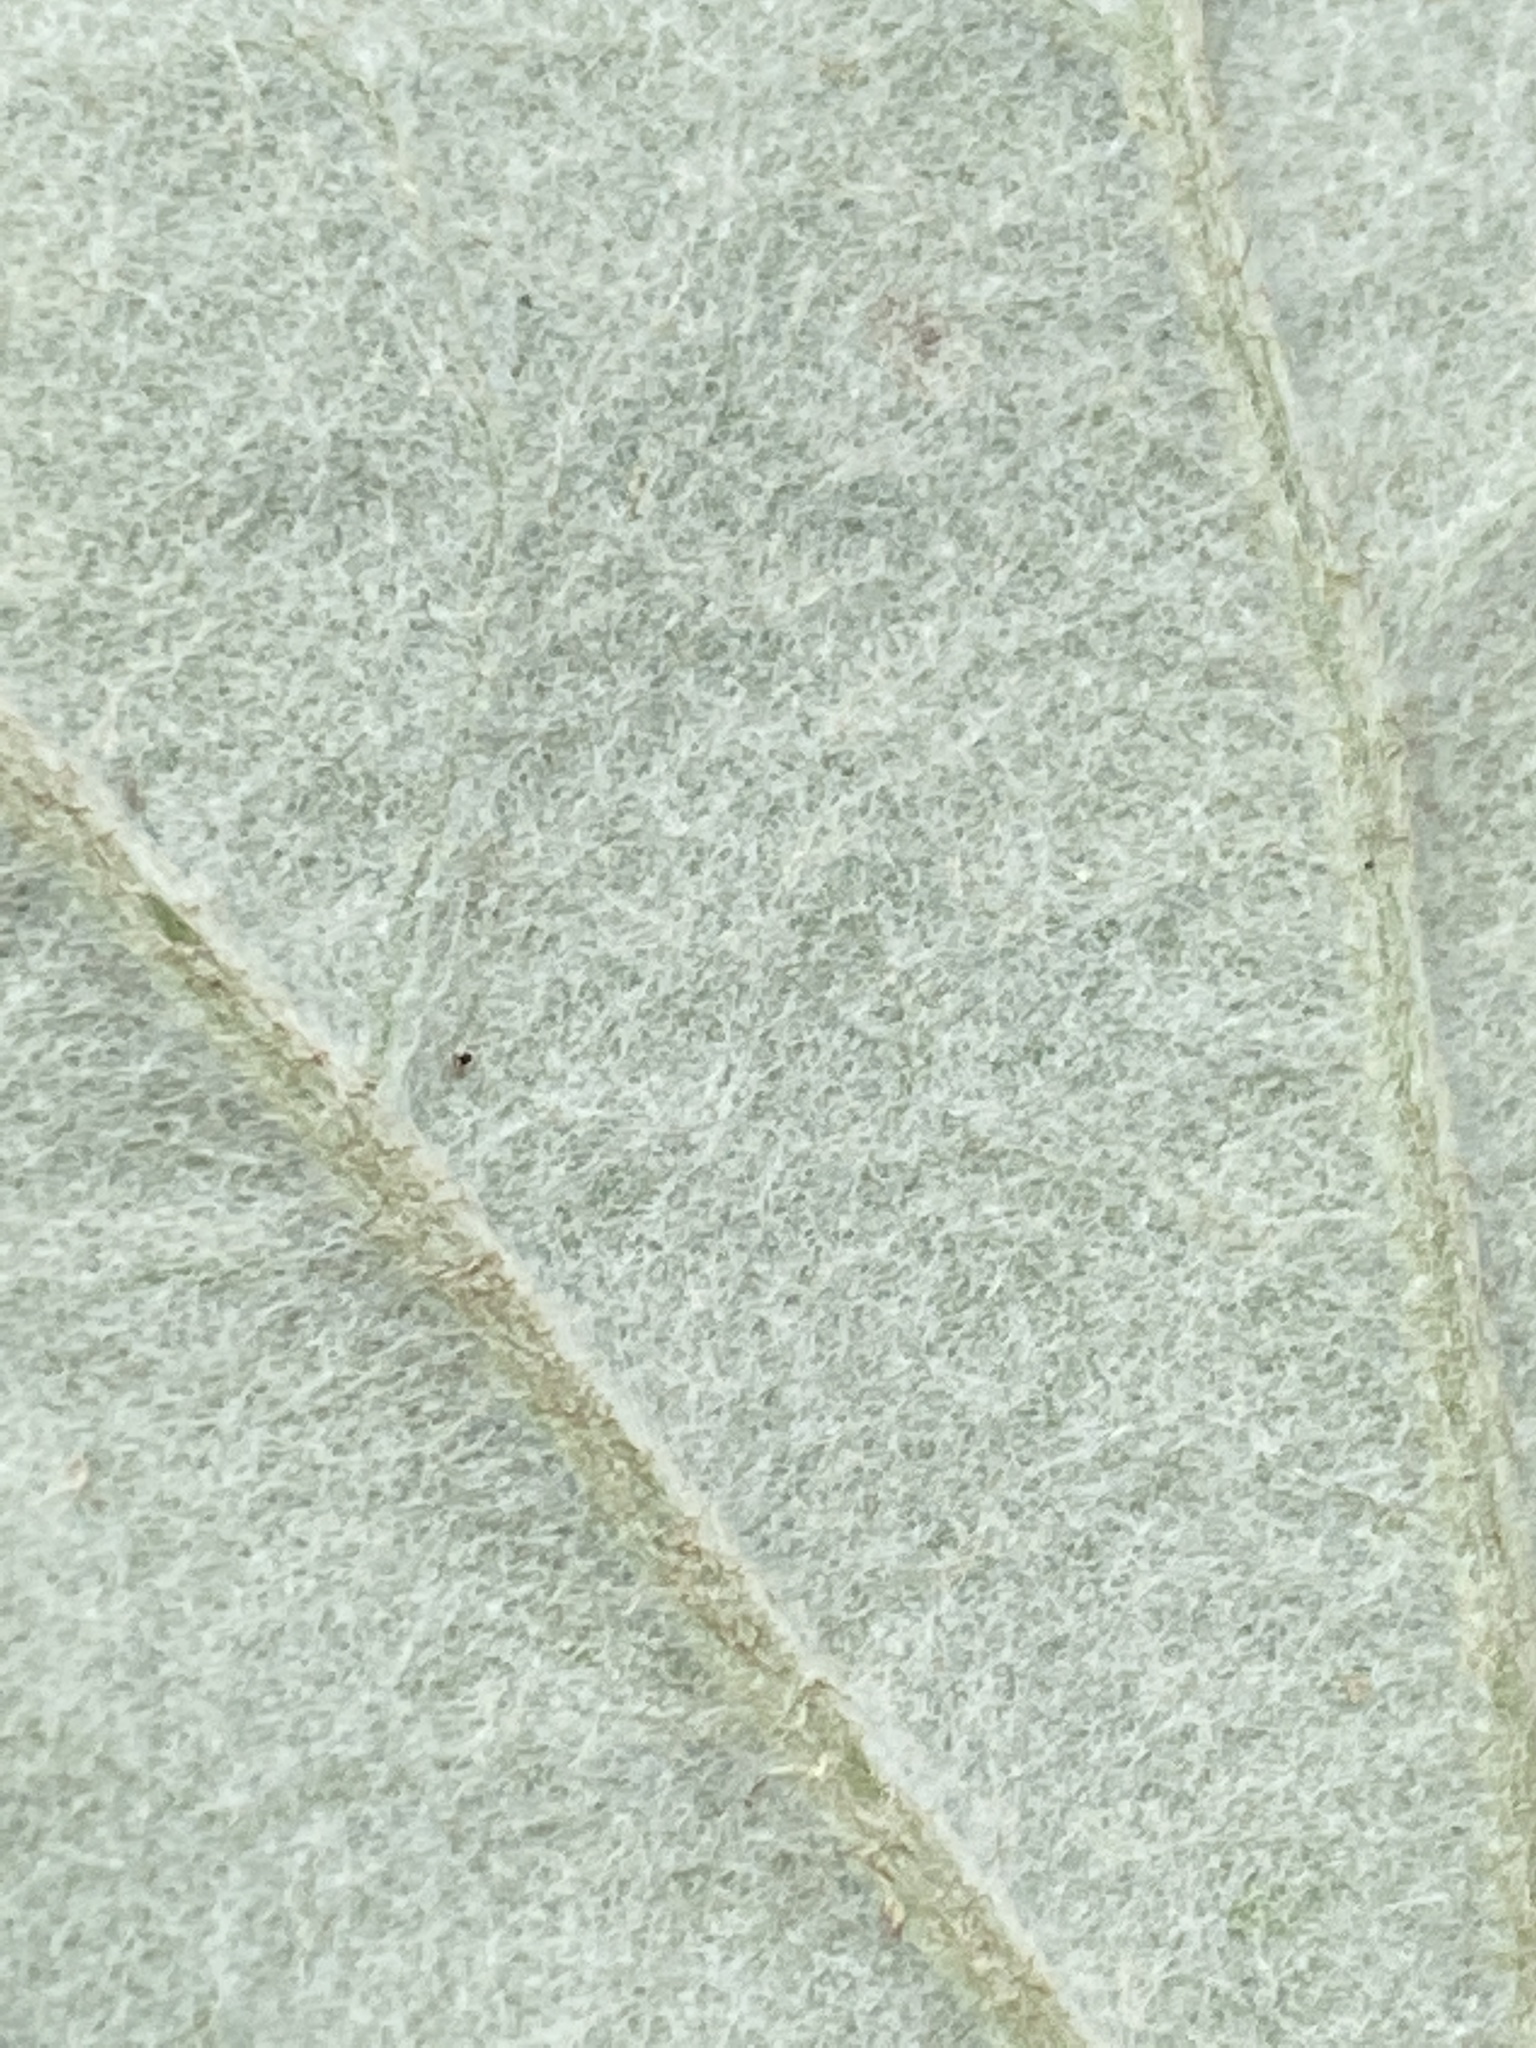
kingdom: Plantae
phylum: Tracheophyta
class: Magnoliopsida
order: Asterales
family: Asteraceae
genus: Tussilago
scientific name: Tussilago farfara
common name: Coltsfoot
